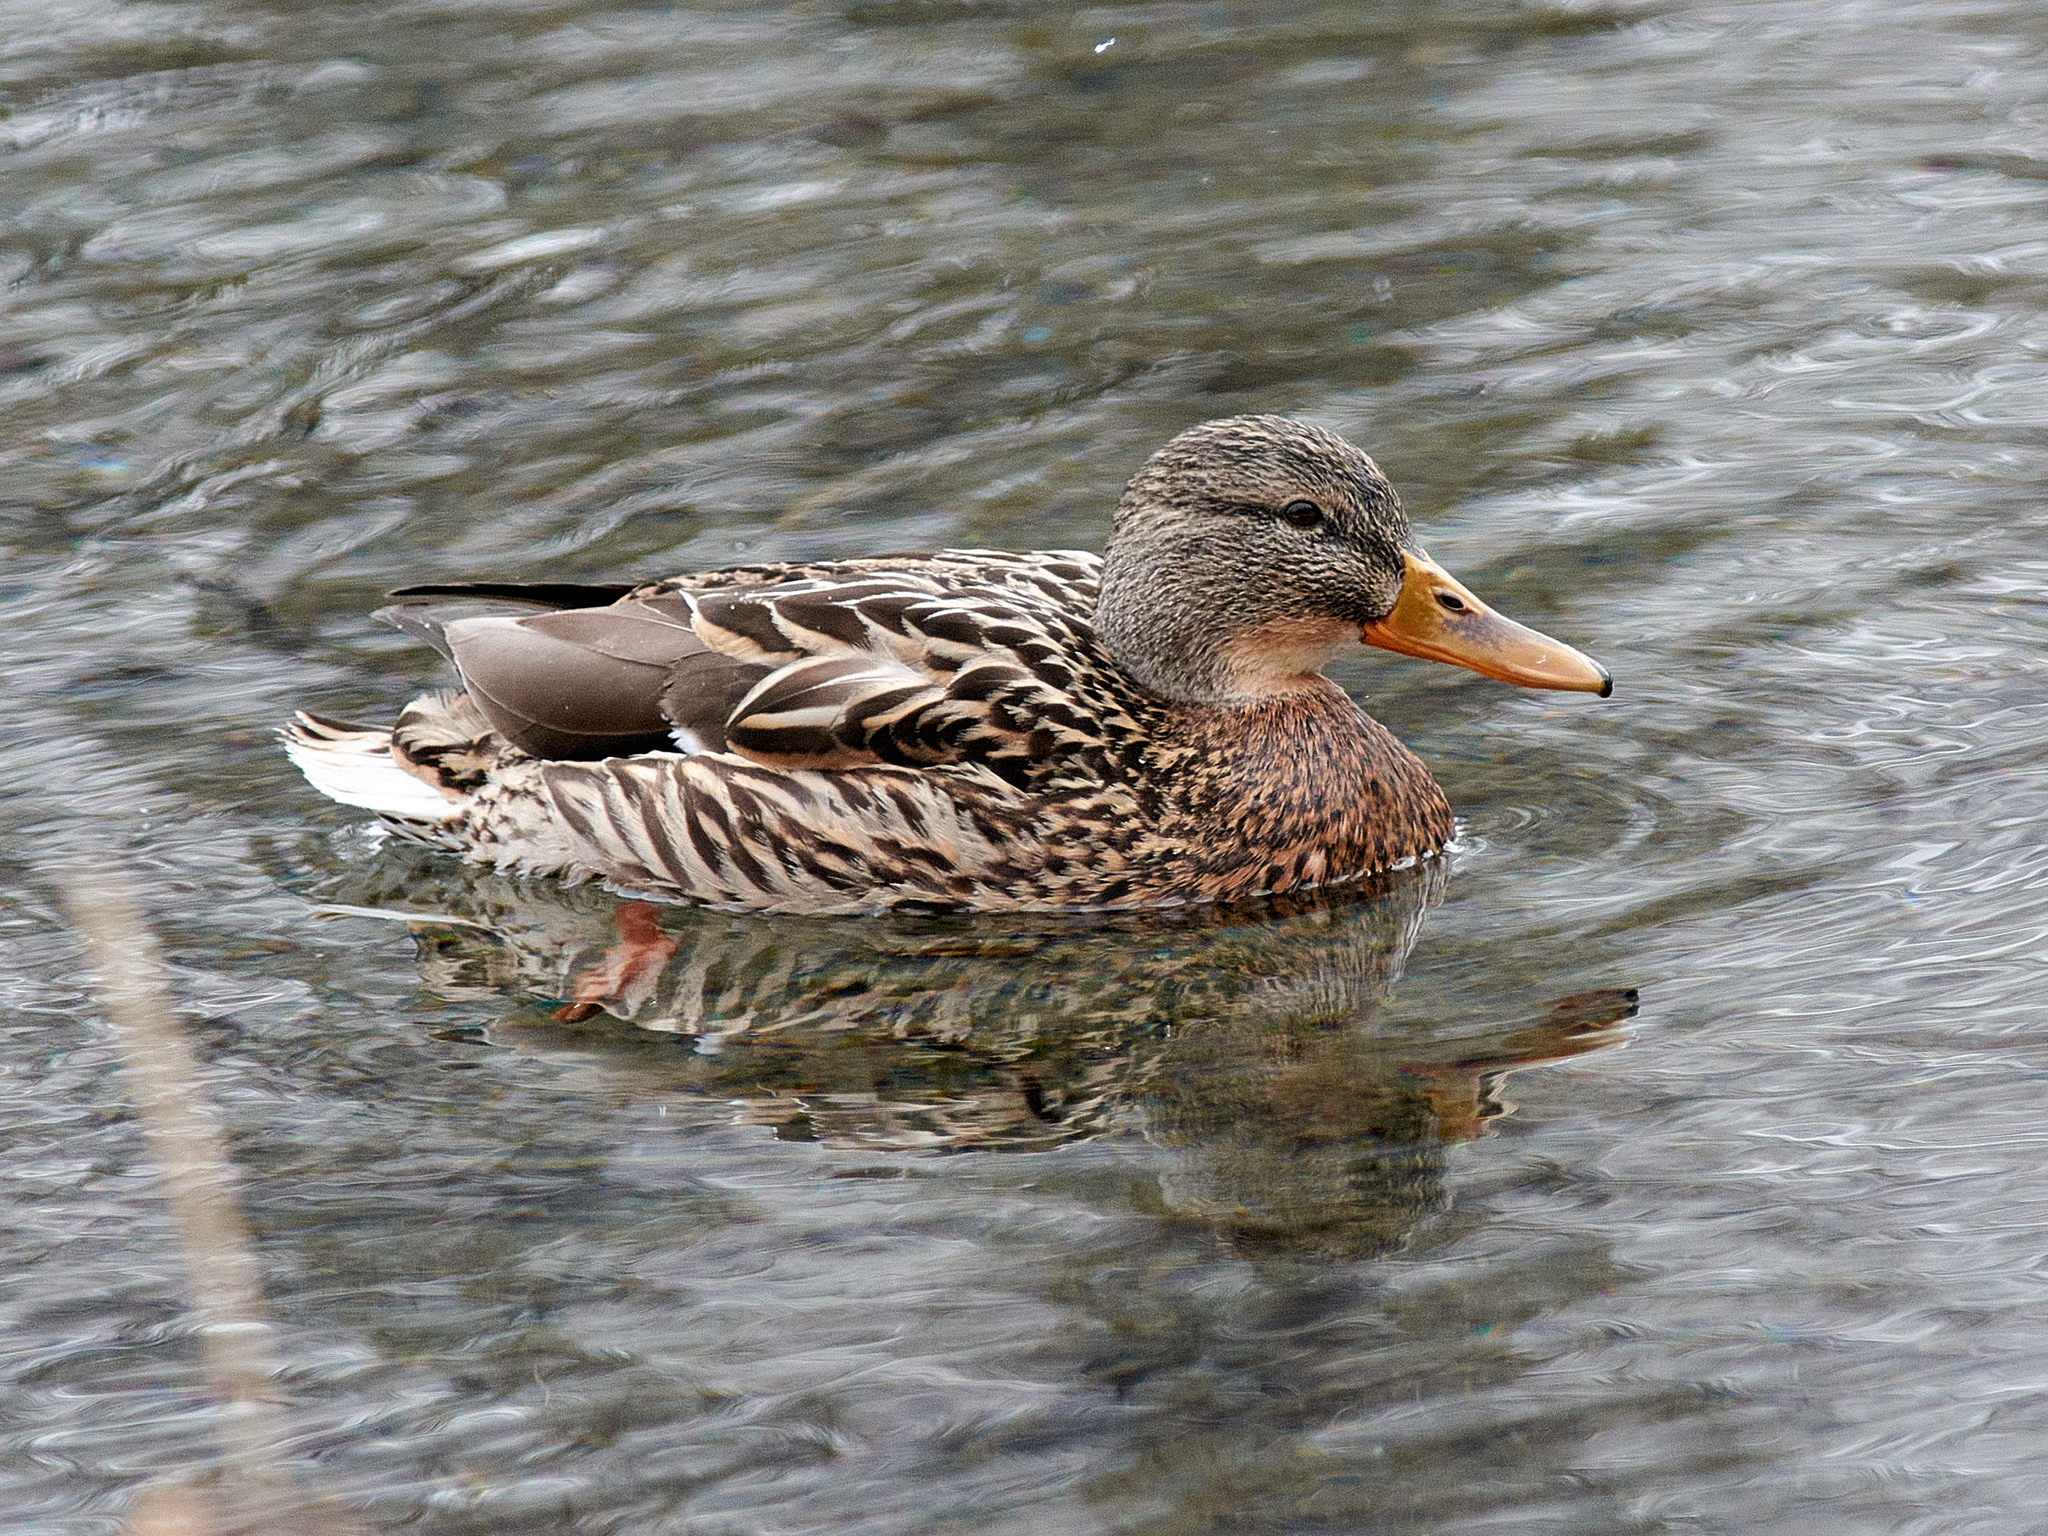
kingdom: Animalia
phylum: Chordata
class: Aves
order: Anseriformes
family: Anatidae
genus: Anas
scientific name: Anas platyrhynchos
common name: Mallard
